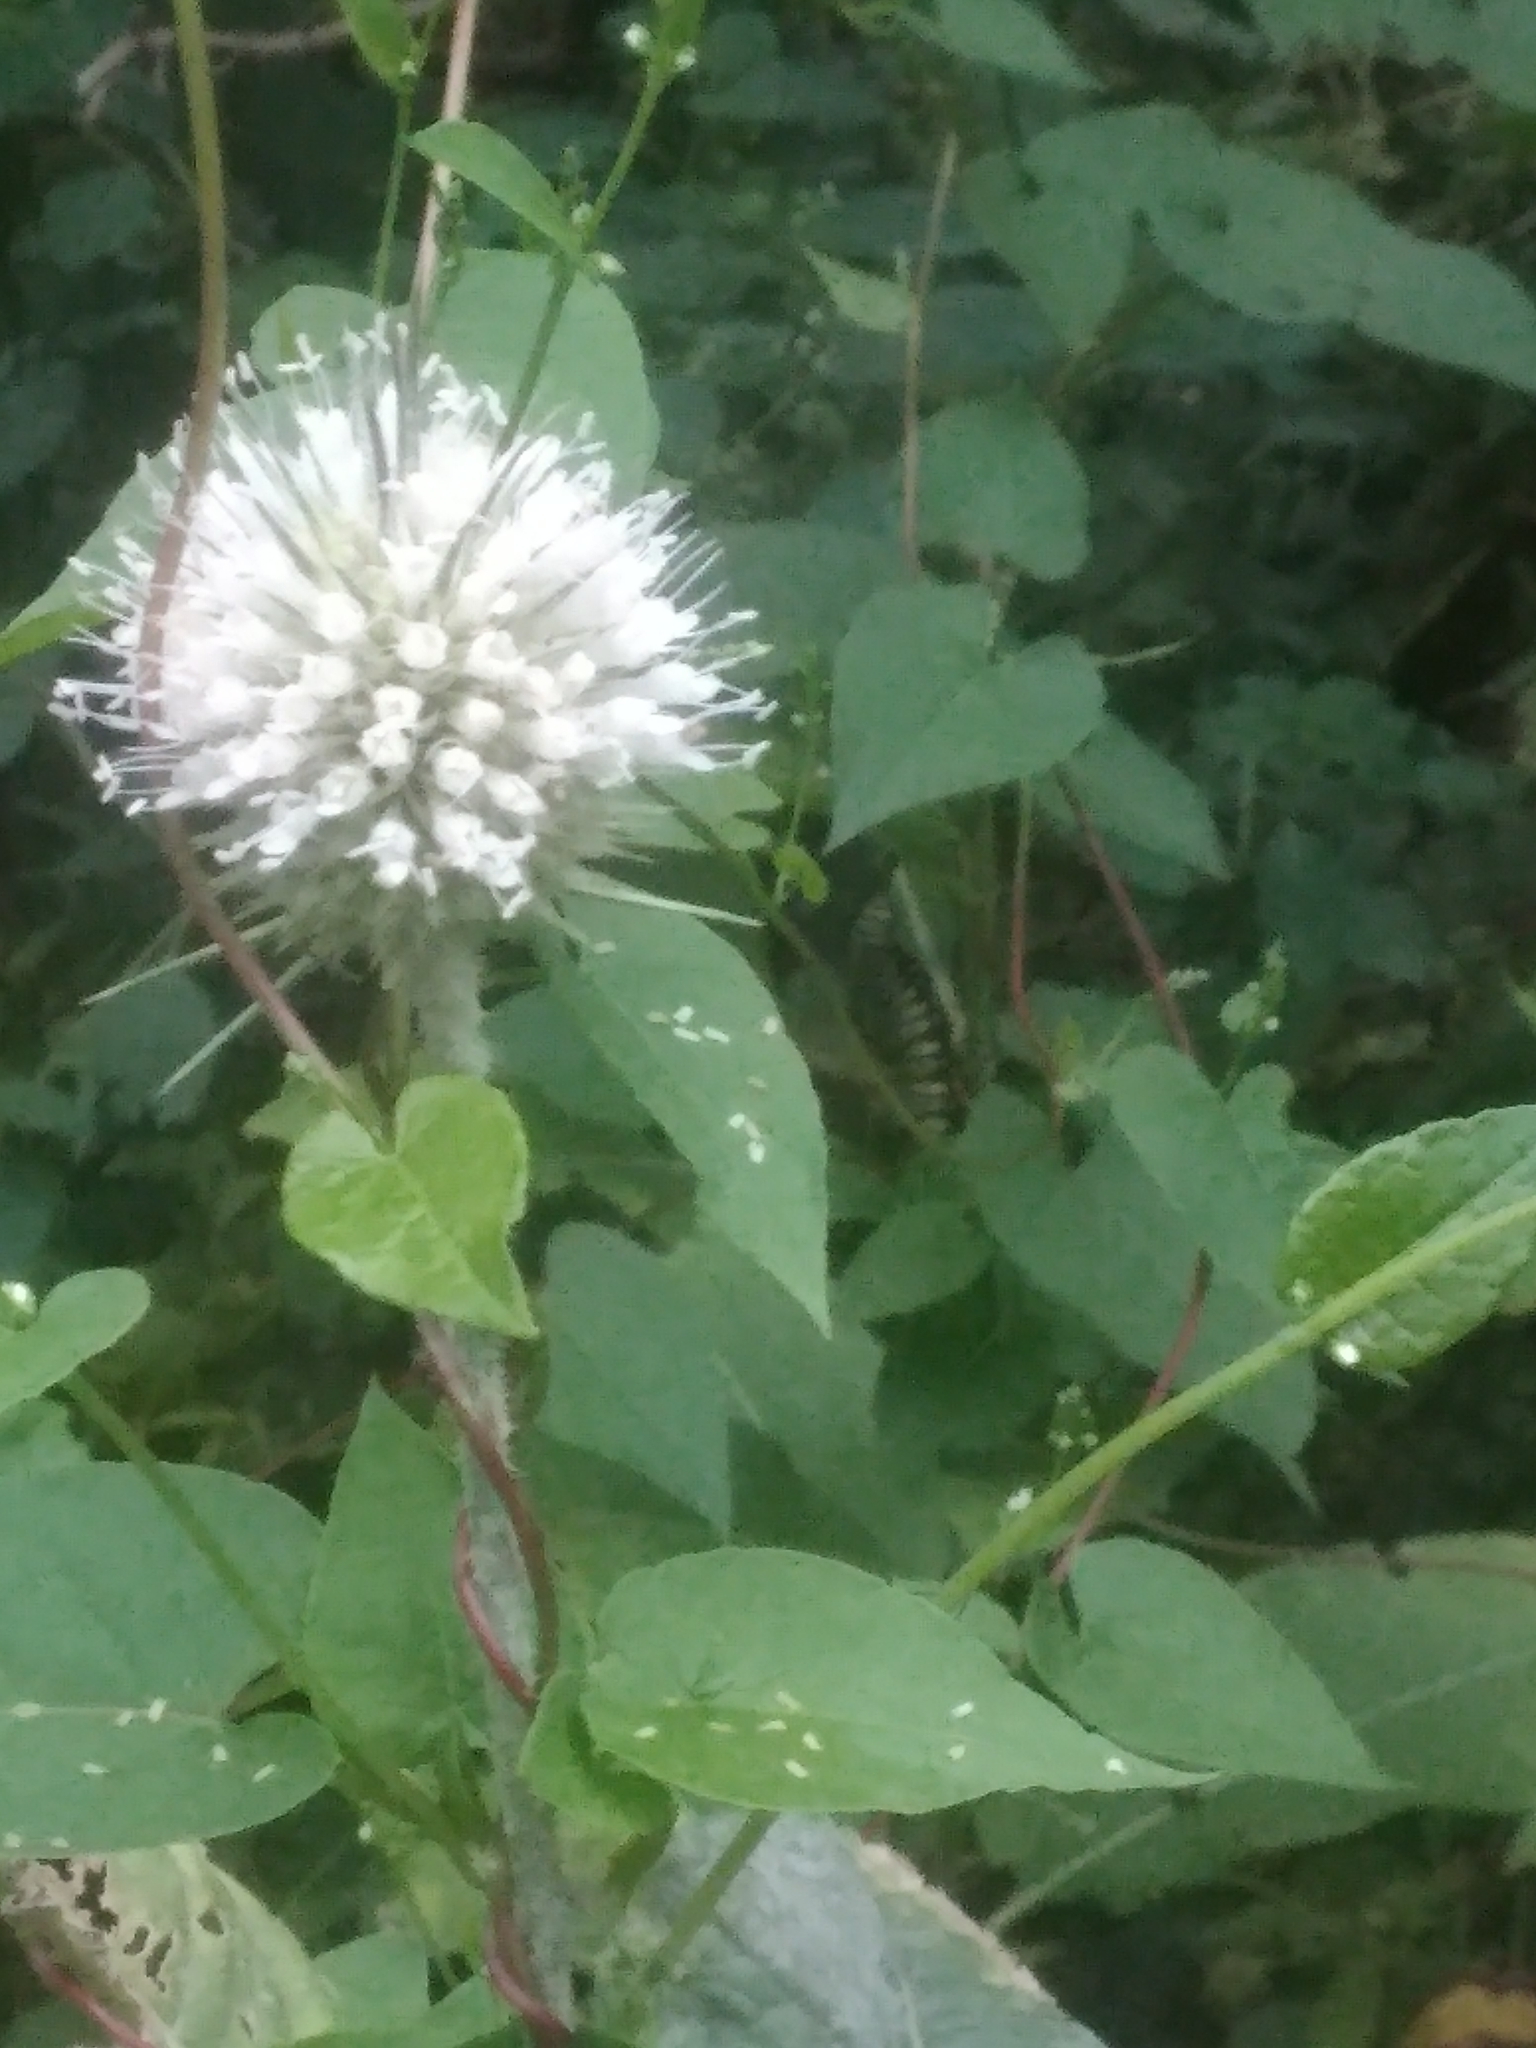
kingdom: Plantae
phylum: Tracheophyta
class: Magnoliopsida
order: Dipsacales
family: Caprifoliaceae
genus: Dipsacus
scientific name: Dipsacus laciniatus
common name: Cut-leaved teasel
